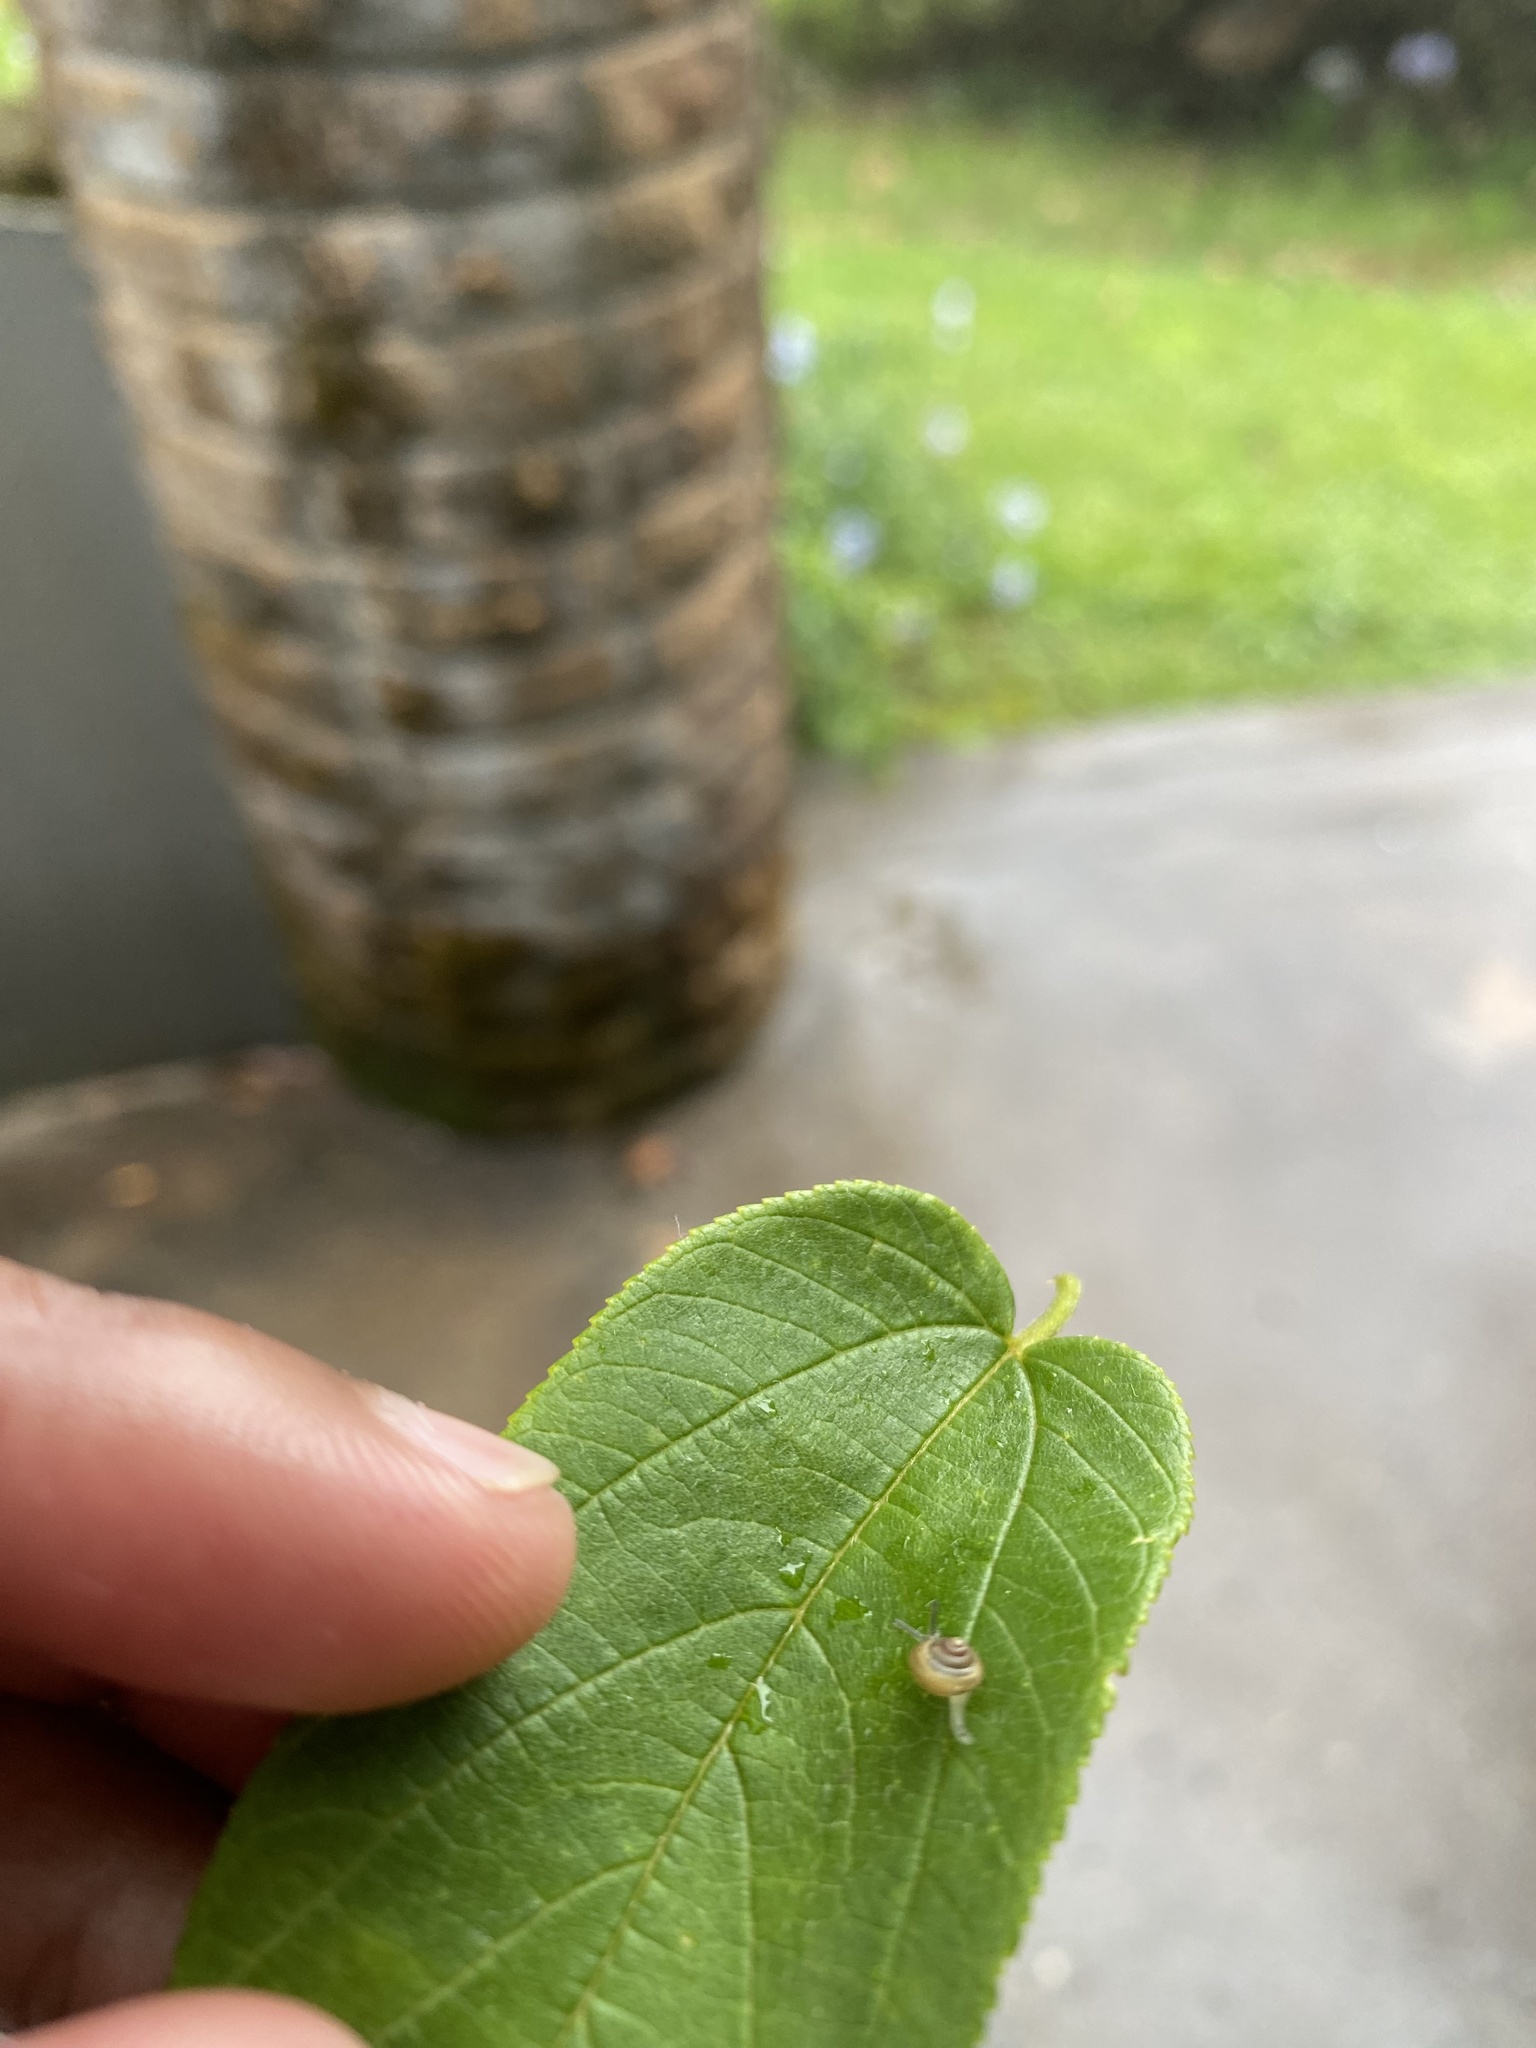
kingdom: Plantae
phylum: Tracheophyta
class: Magnoliopsida
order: Rosales
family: Cannabaceae
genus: Trema
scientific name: Trema orientale
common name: Indian charcoal tree
